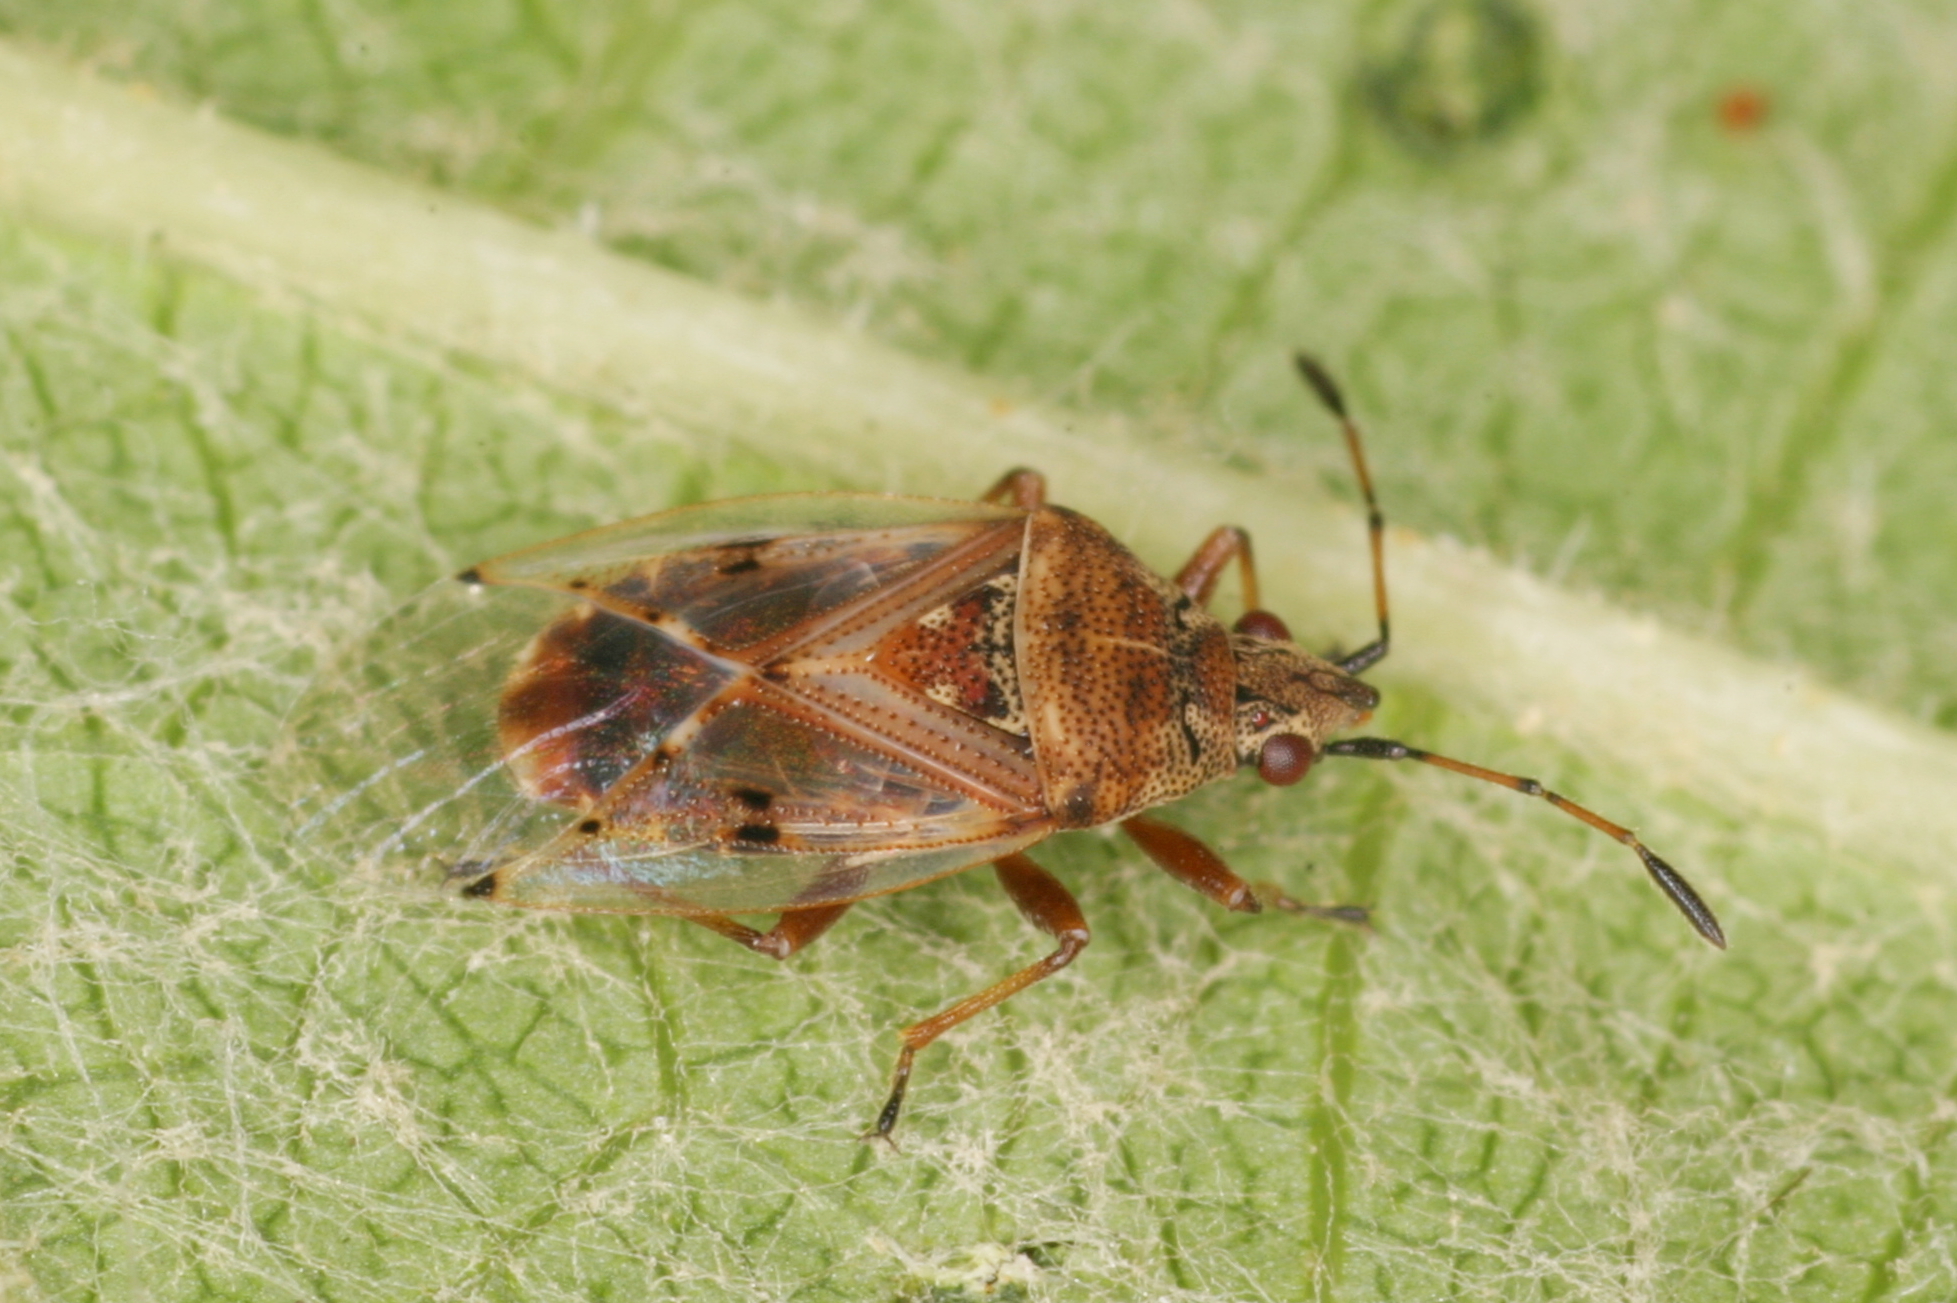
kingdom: Animalia
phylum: Arthropoda
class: Insecta
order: Hemiptera
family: Lygaeidae
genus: Kleidocerys
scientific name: Kleidocerys resedae
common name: Birch catkin bug
